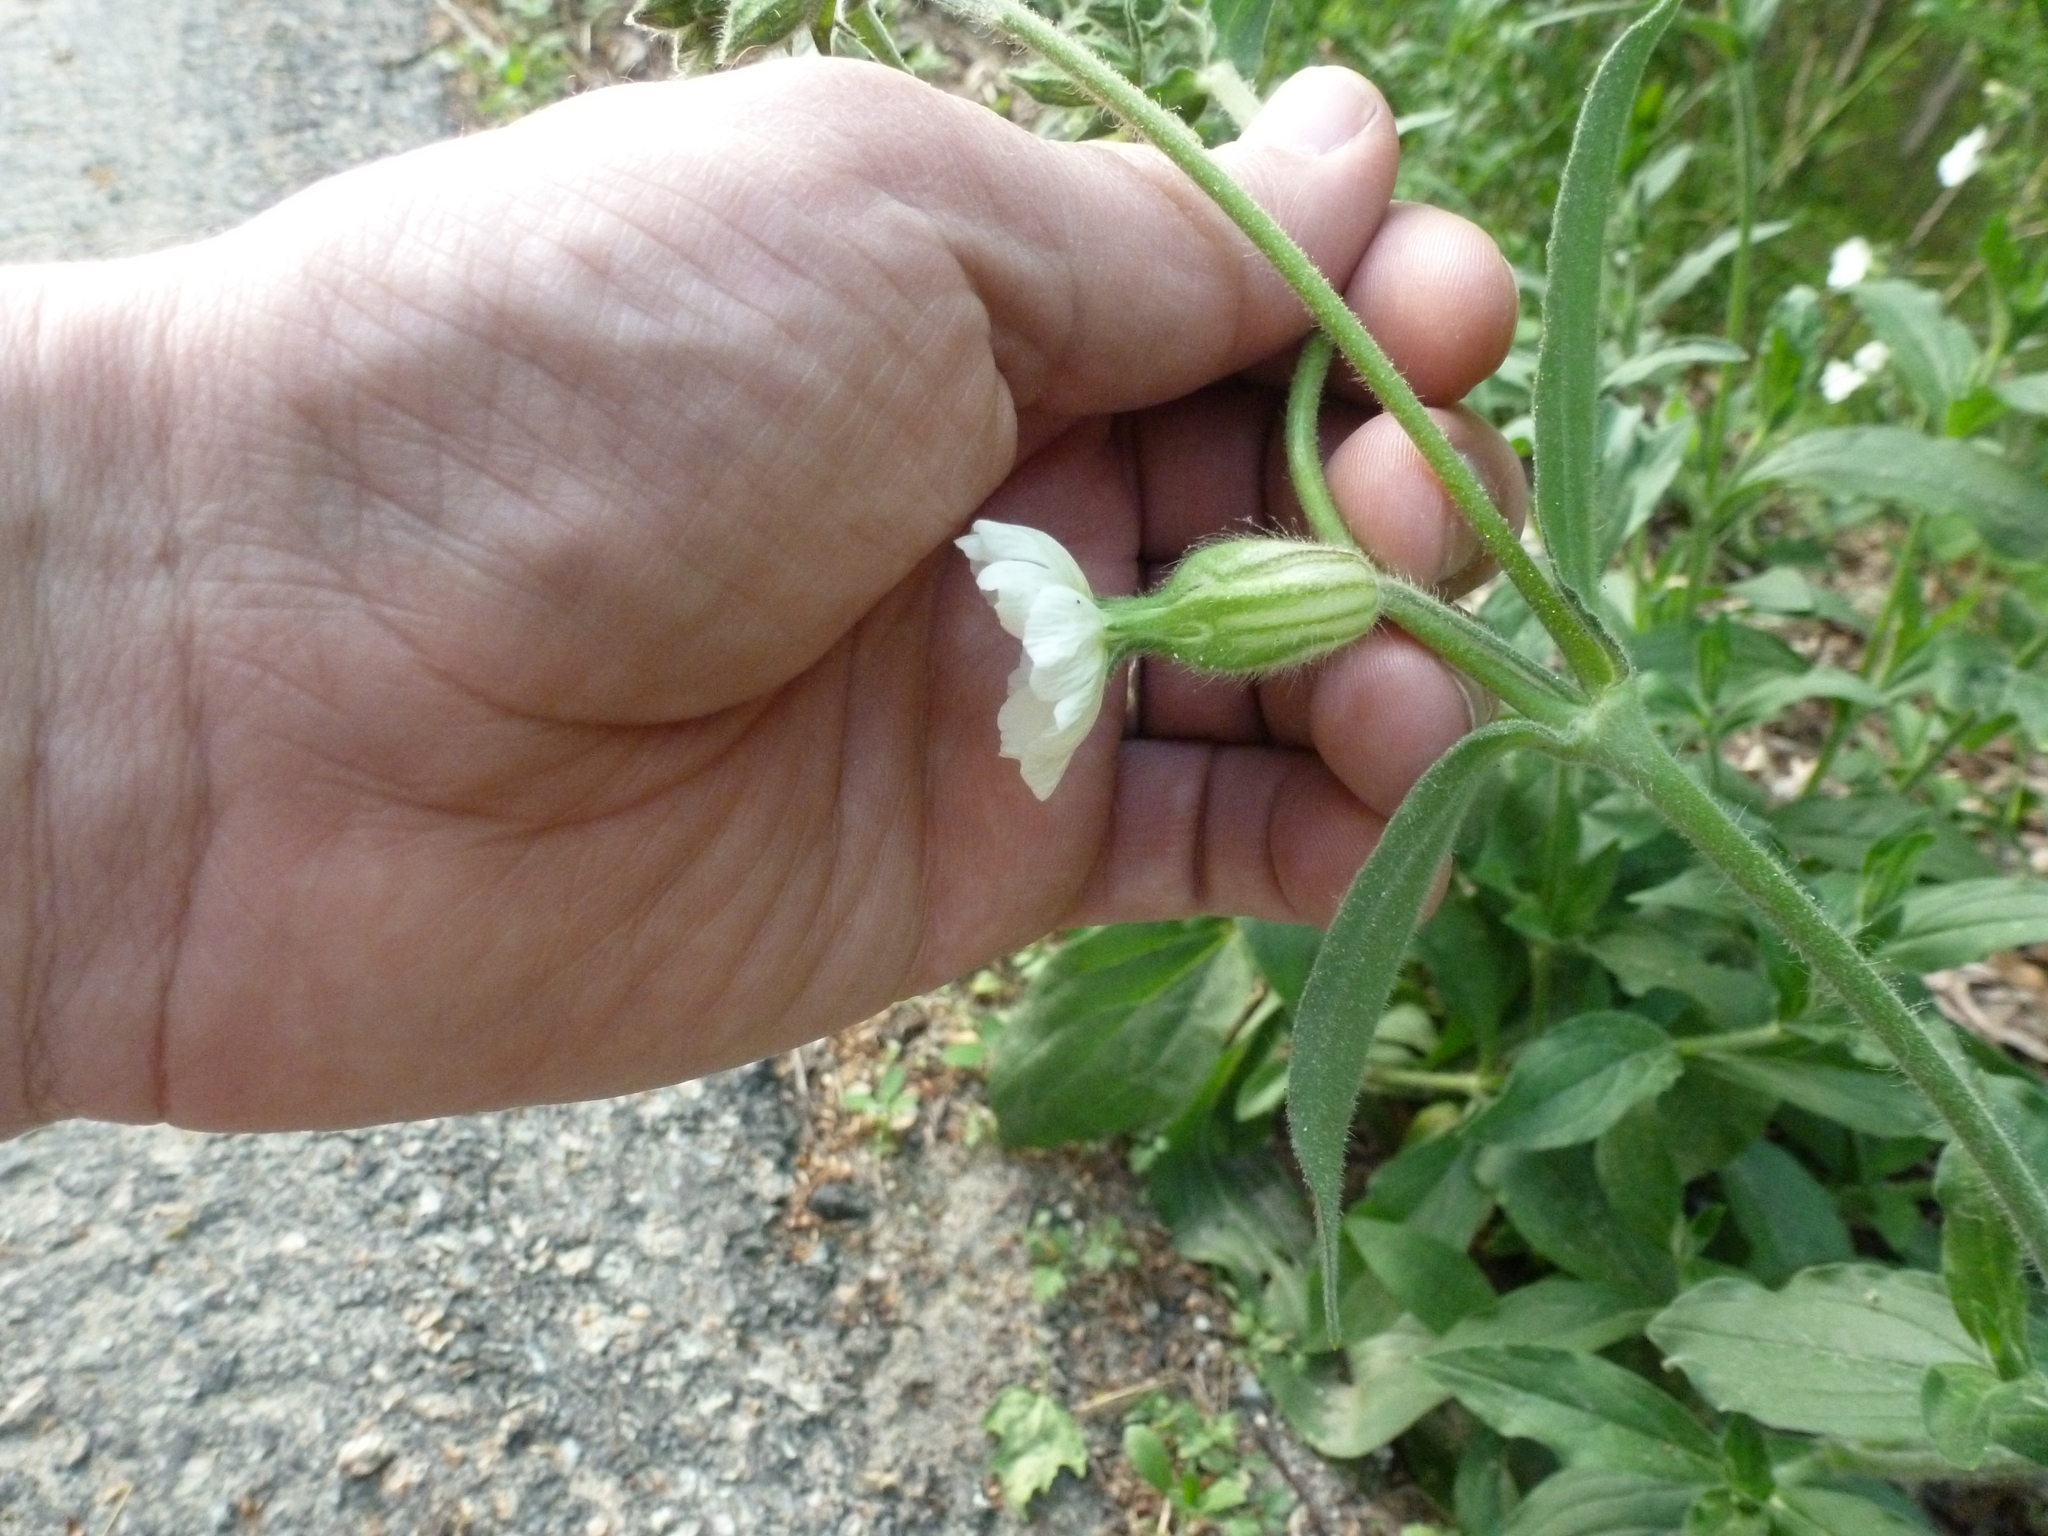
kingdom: Plantae
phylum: Tracheophyta
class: Magnoliopsida
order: Caryophyllales
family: Caryophyllaceae
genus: Silene
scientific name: Silene latifolia
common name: White campion
